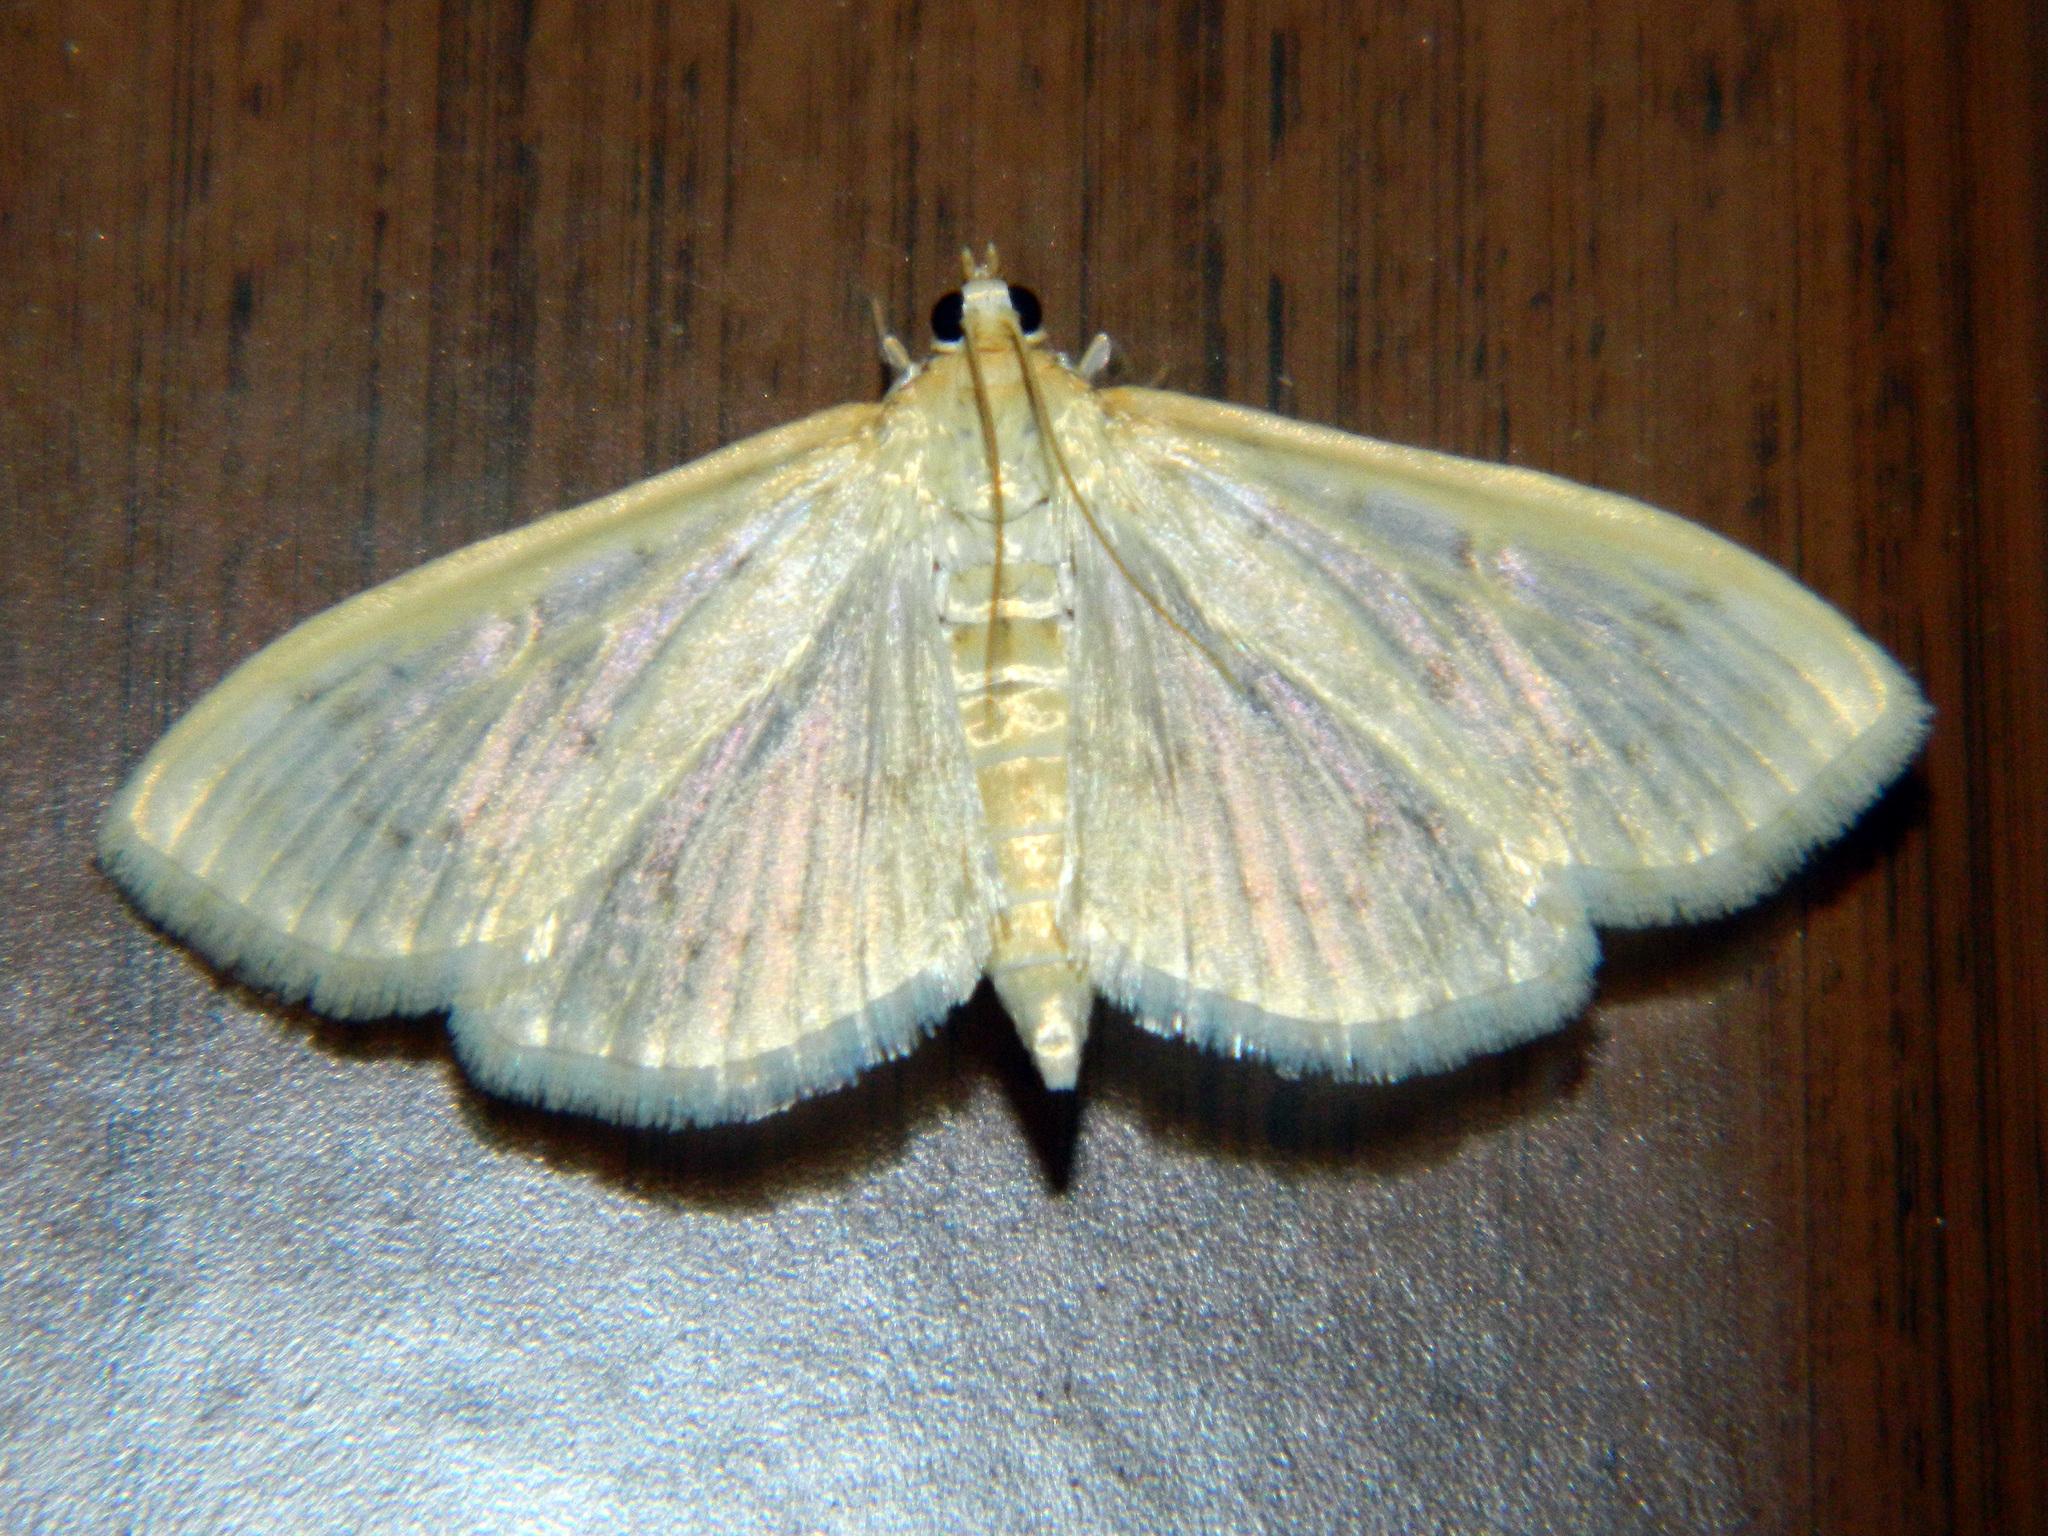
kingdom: Animalia
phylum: Arthropoda
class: Insecta
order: Lepidoptera
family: Crambidae
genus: Herpetogramma
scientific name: Herpetogramma aquilonalis
